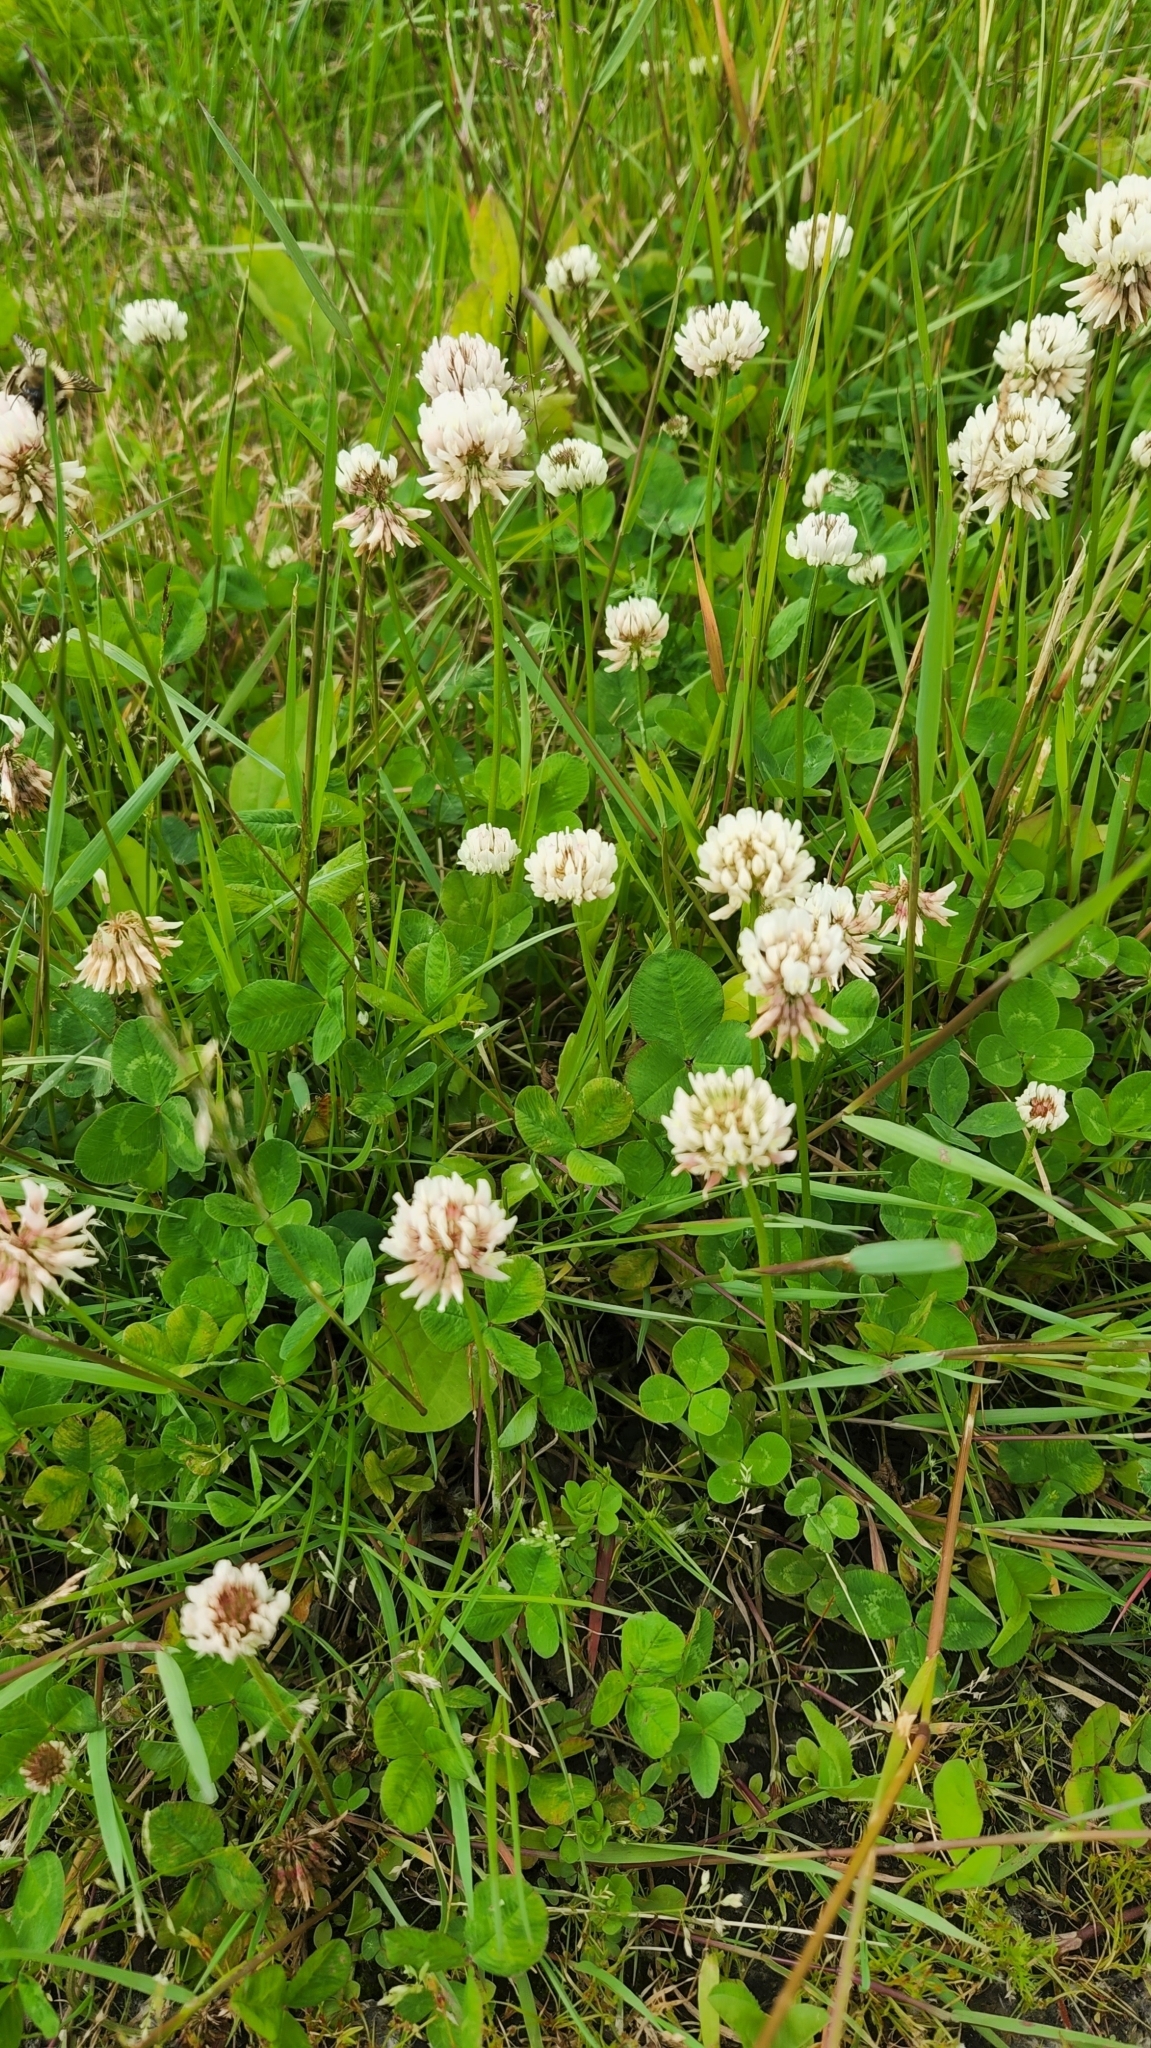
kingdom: Plantae
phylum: Tracheophyta
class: Magnoliopsida
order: Fabales
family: Fabaceae
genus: Trifolium
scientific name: Trifolium repens
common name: White clover
